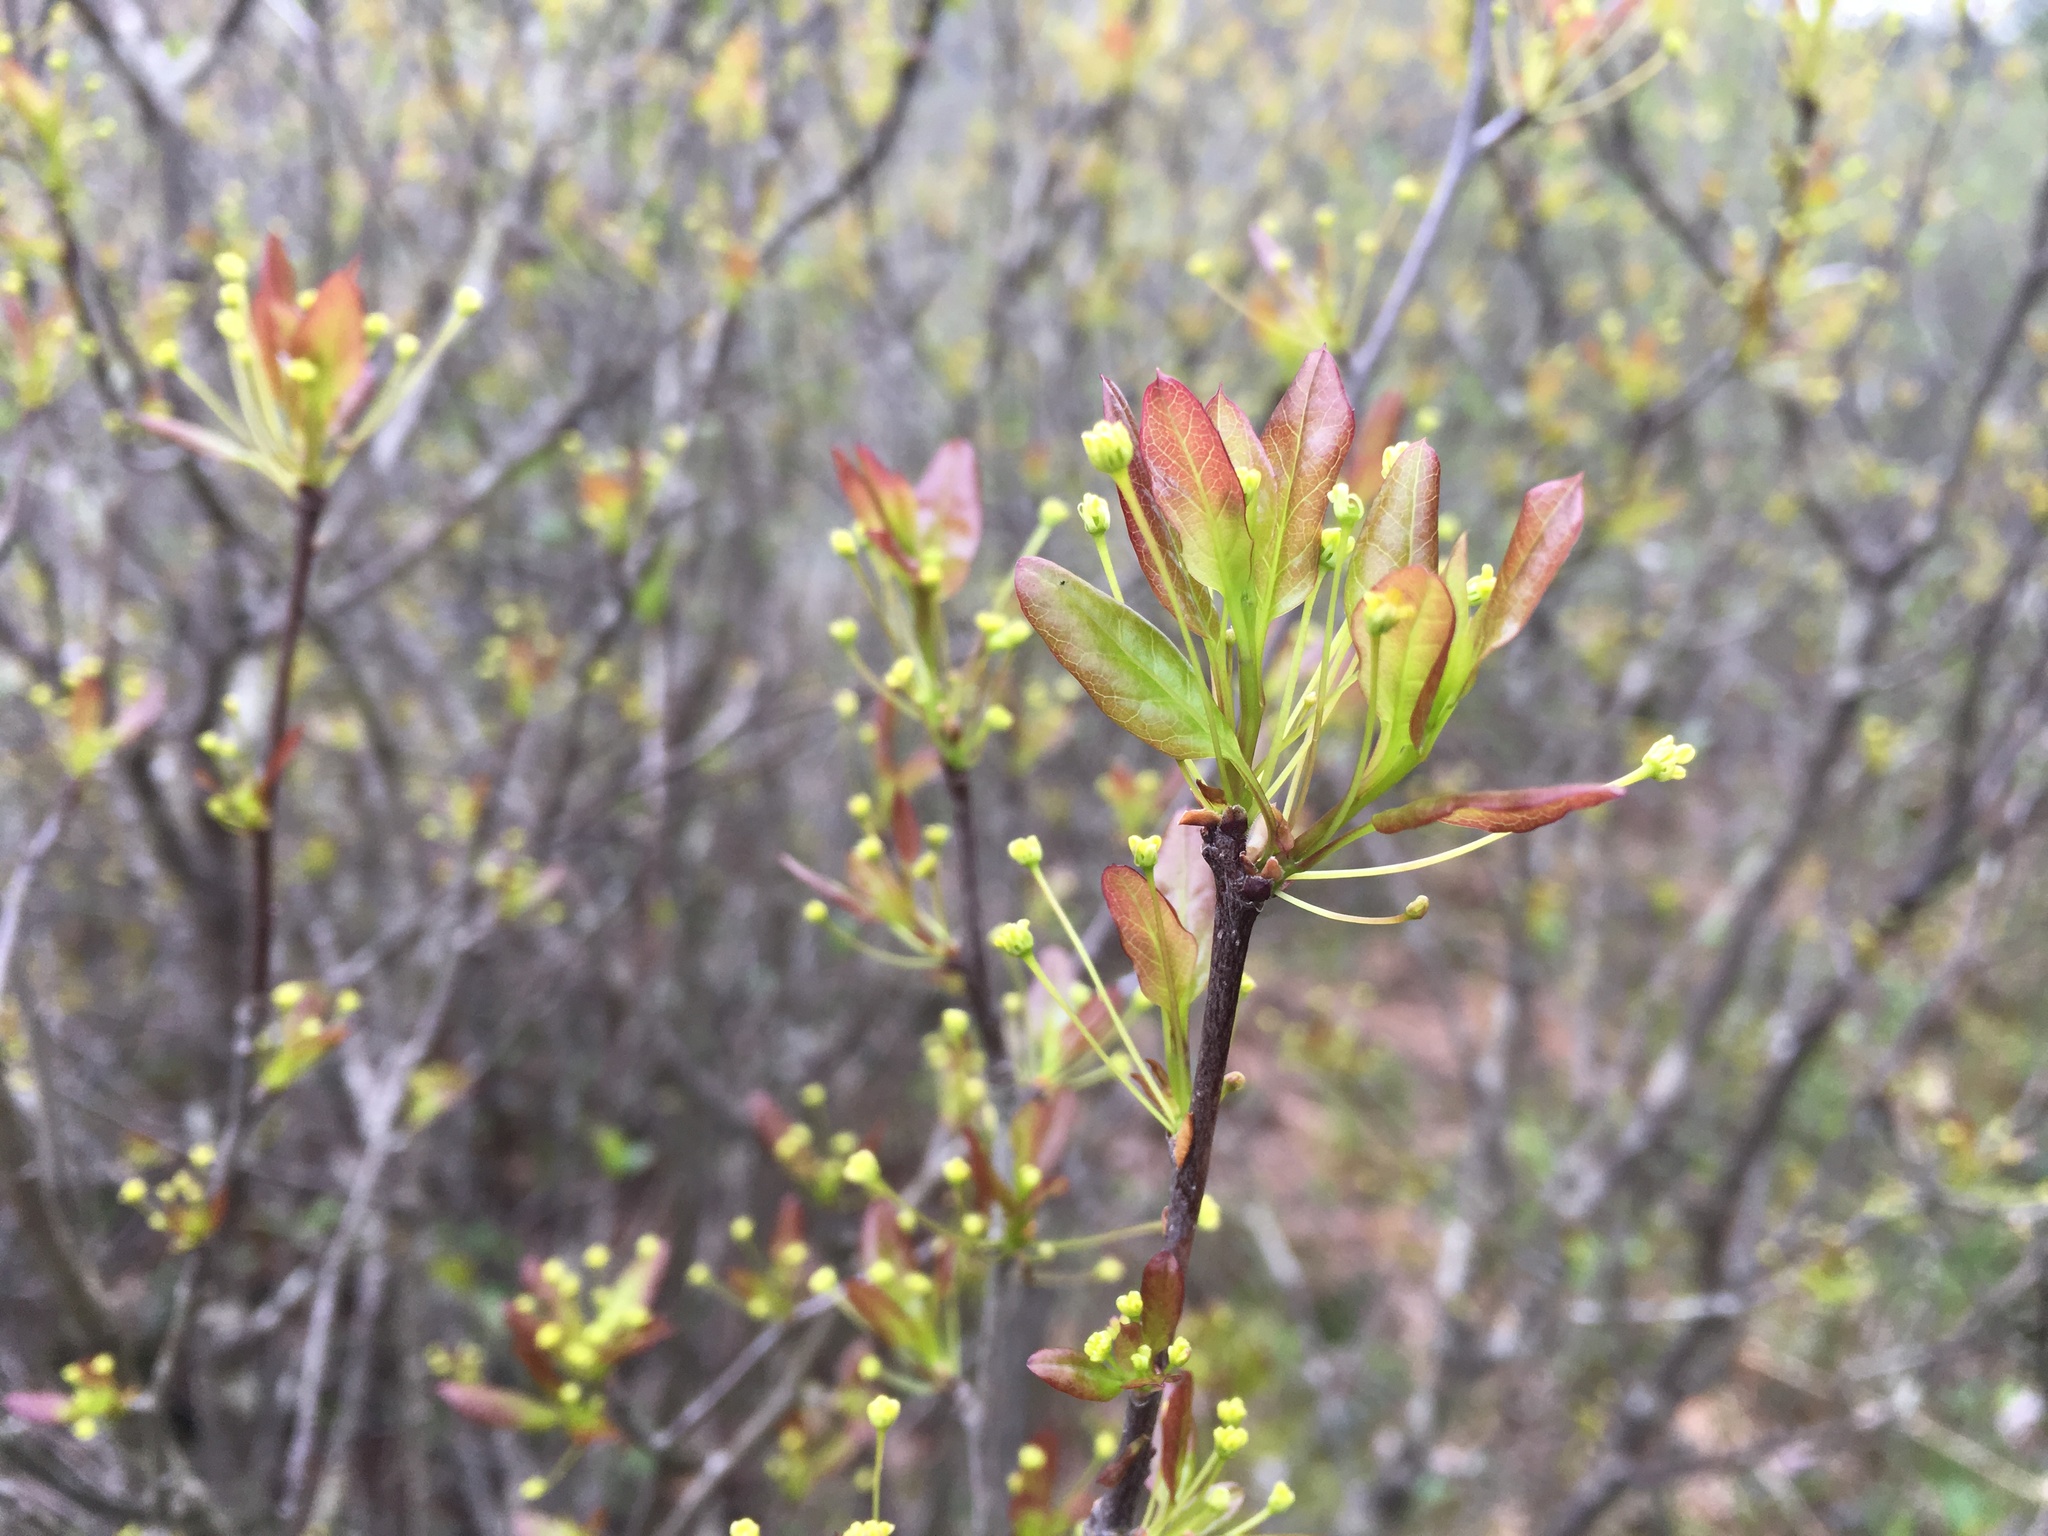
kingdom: Plantae
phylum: Tracheophyta
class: Magnoliopsida
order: Aquifoliales
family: Aquifoliaceae
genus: Ilex
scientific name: Ilex mucronata
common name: Catberry
